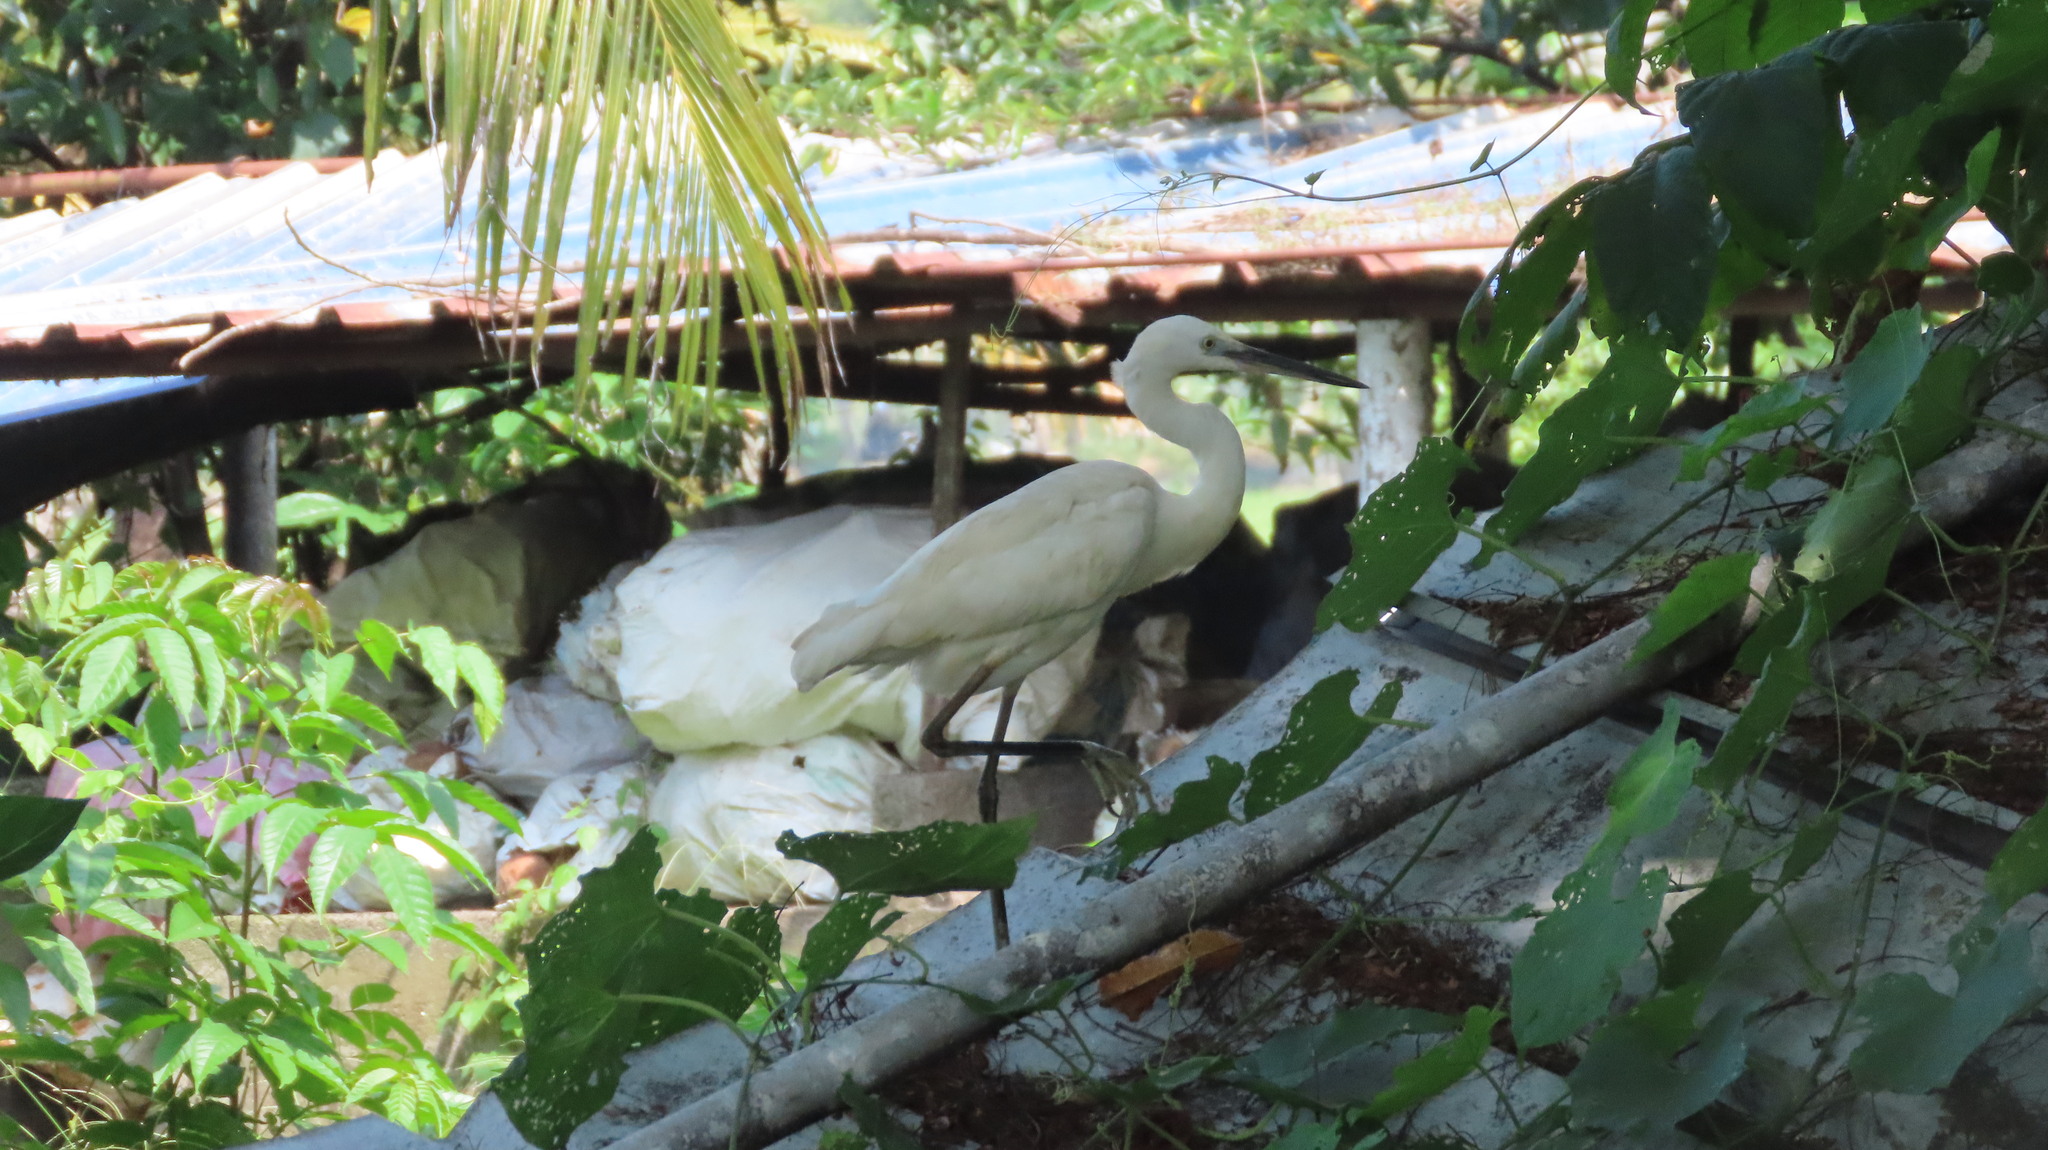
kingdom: Animalia
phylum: Chordata
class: Aves
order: Pelecaniformes
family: Ardeidae
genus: Egretta
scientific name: Egretta garzetta
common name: Little egret
